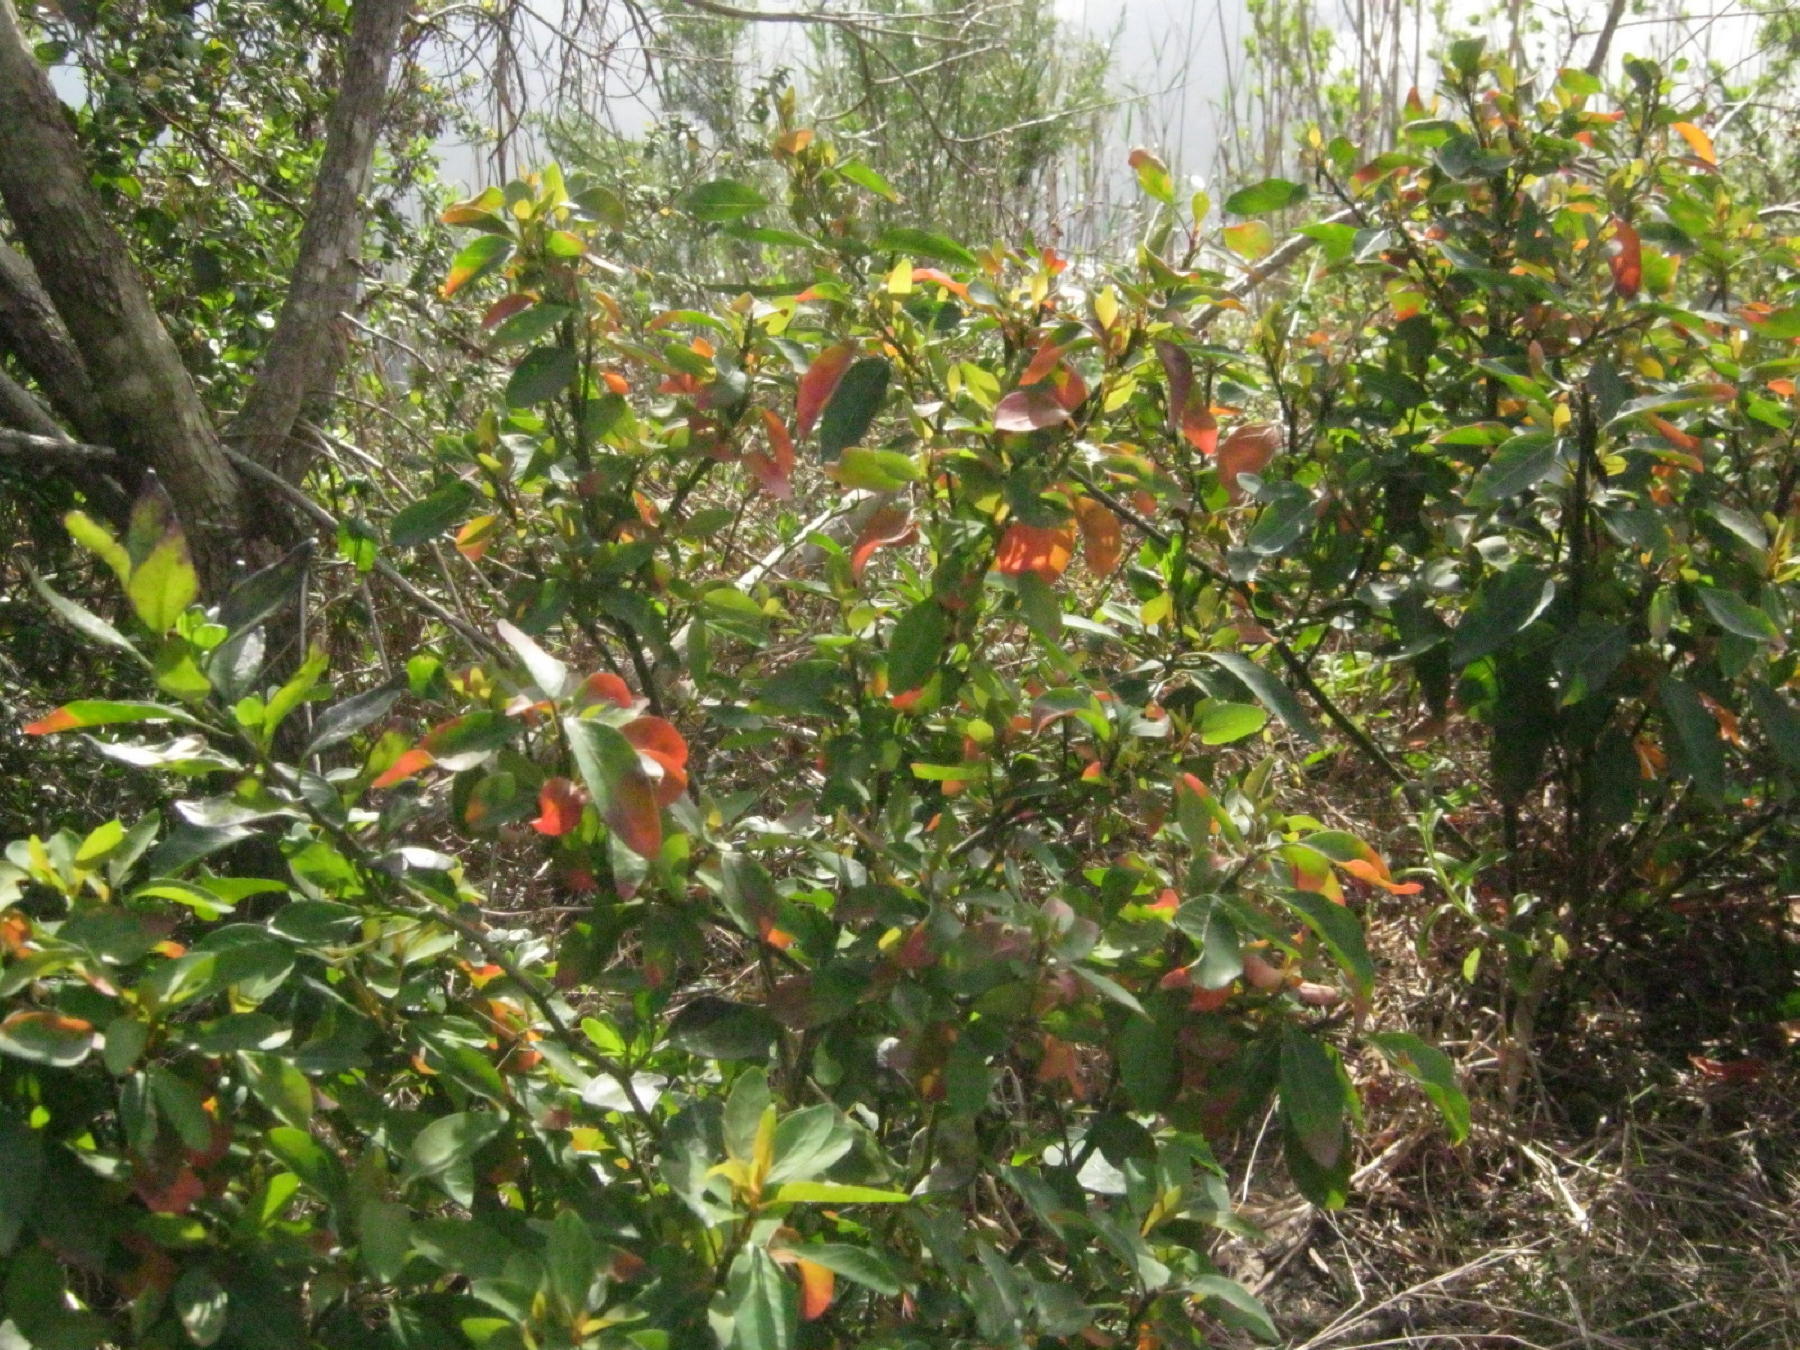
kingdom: Plantae
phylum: Tracheophyta
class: Magnoliopsida
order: Malpighiales
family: Peraceae
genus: Clutia
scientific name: Clutia pulchella
